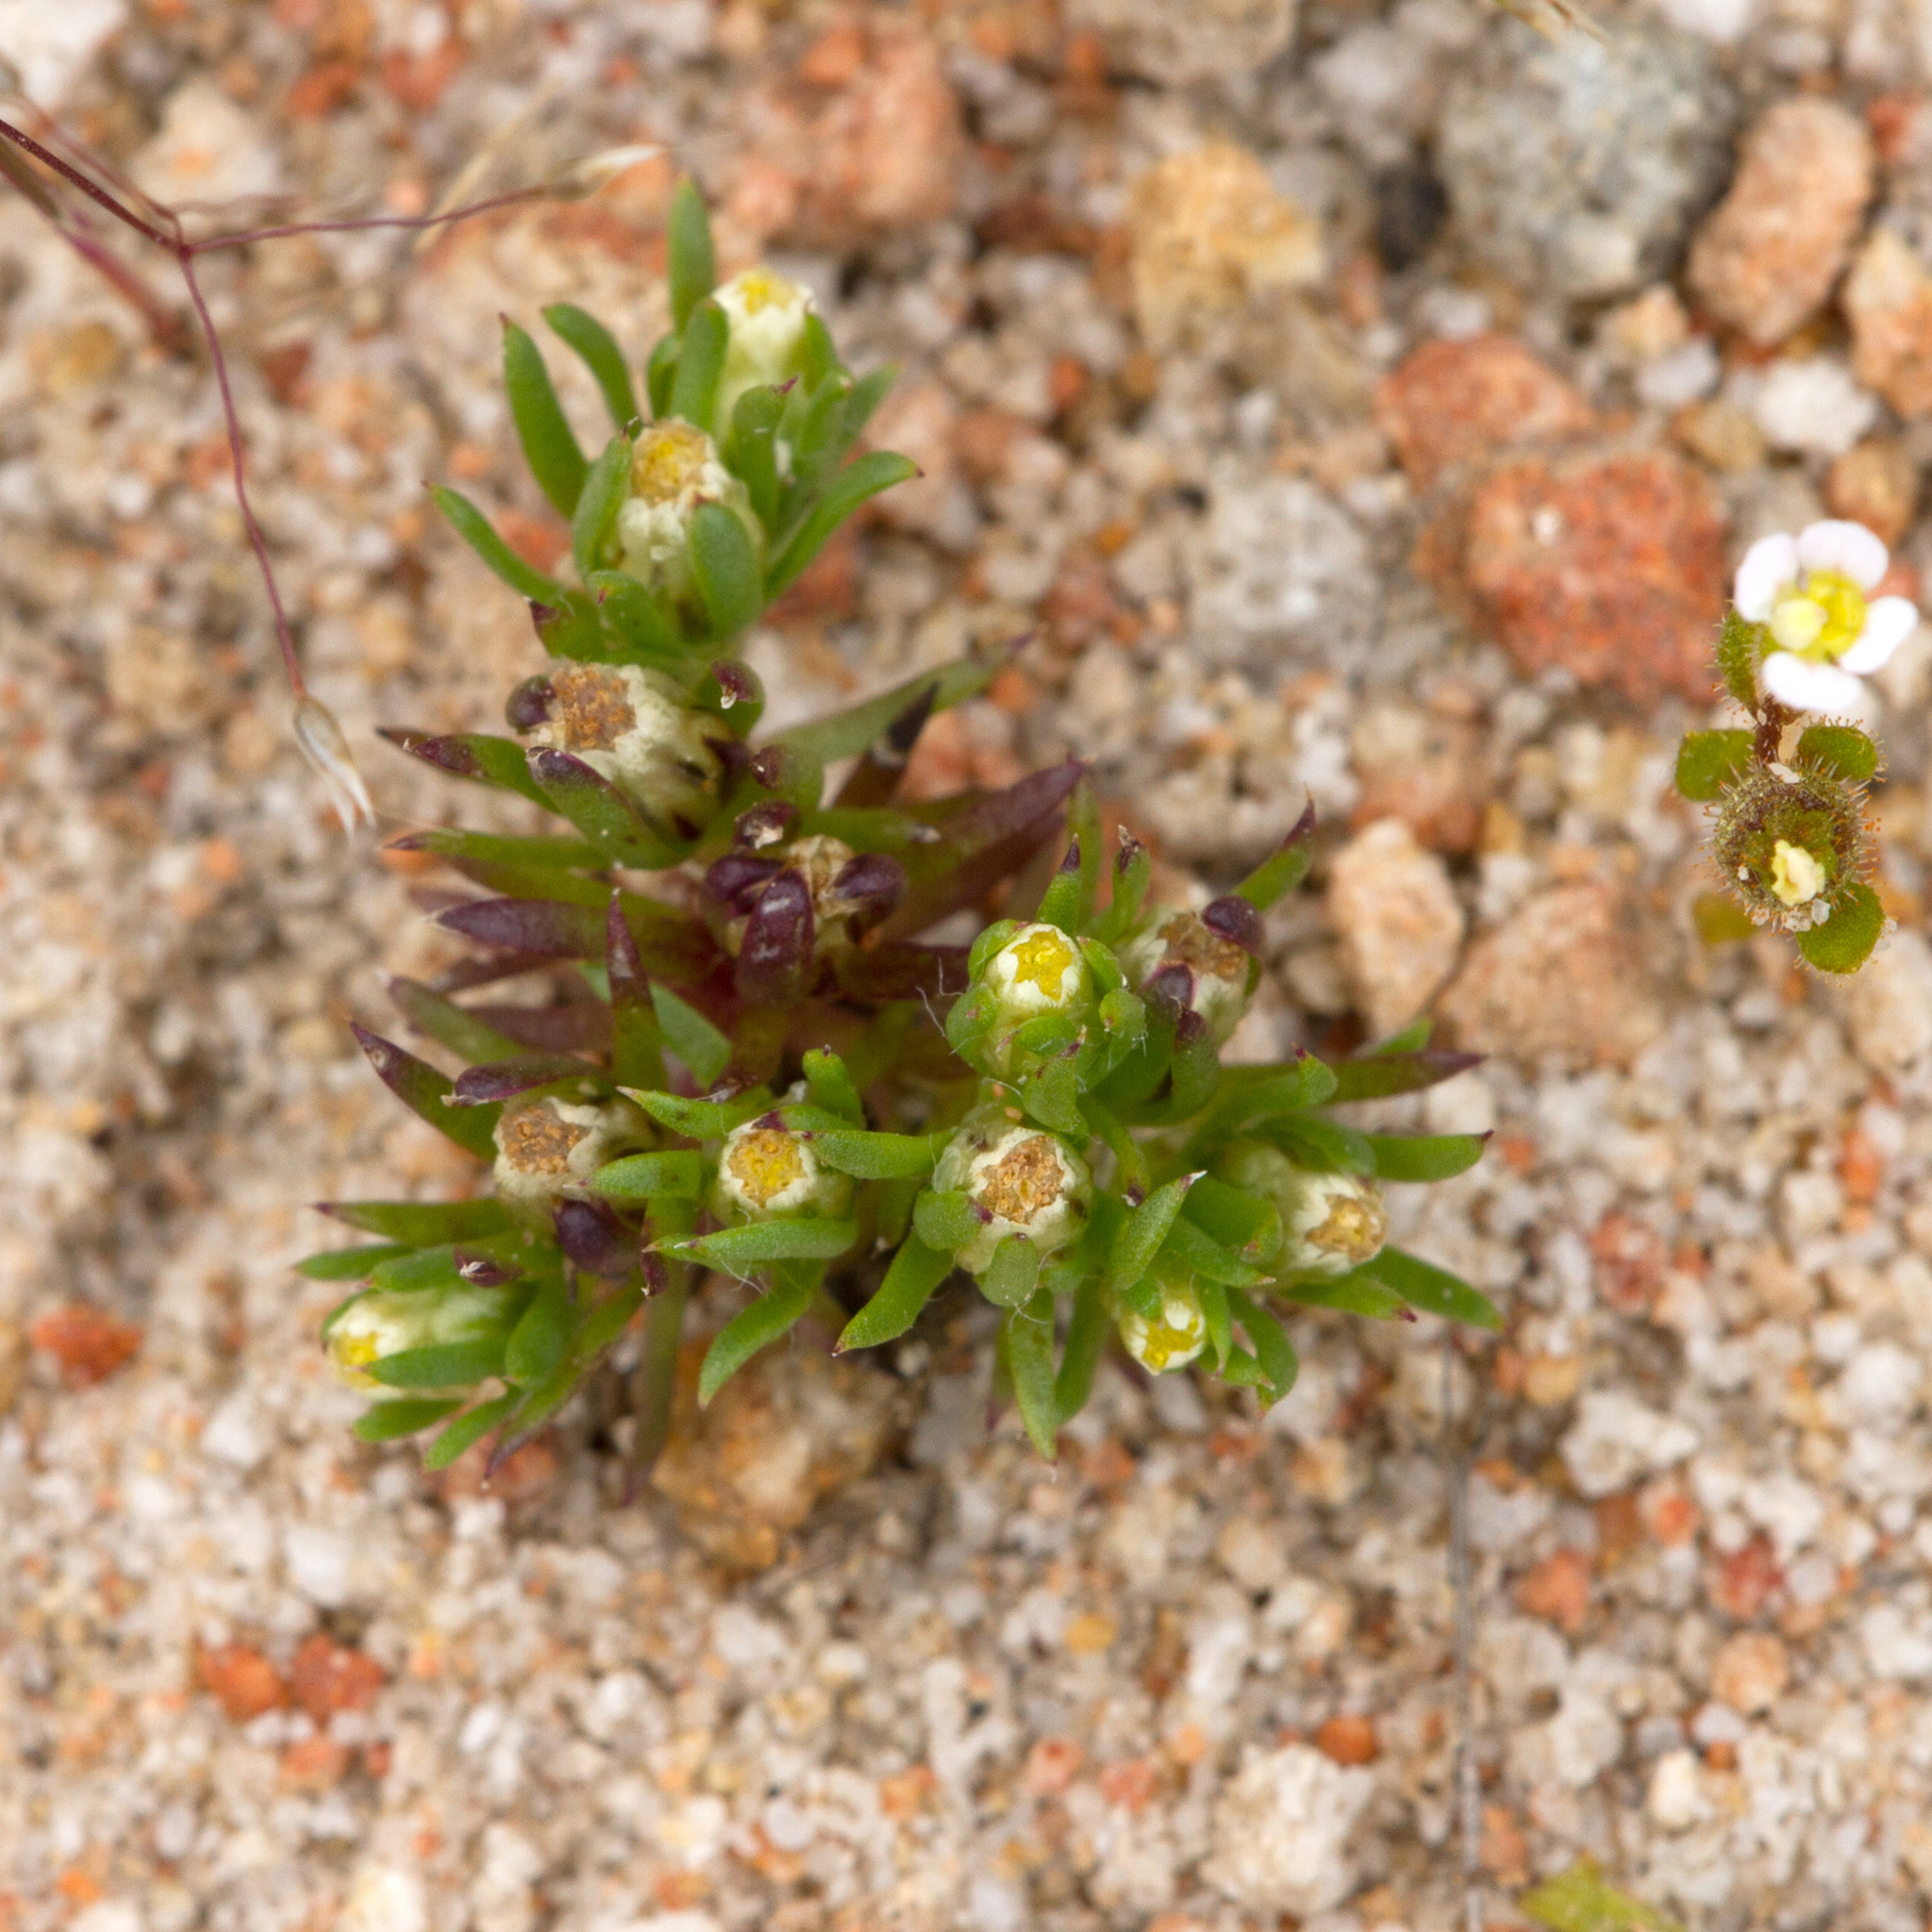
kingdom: Plantae
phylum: Tracheophyta
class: Magnoliopsida
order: Asterales
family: Asteraceae
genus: Hyalosperma
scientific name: Hyalosperma demissum
